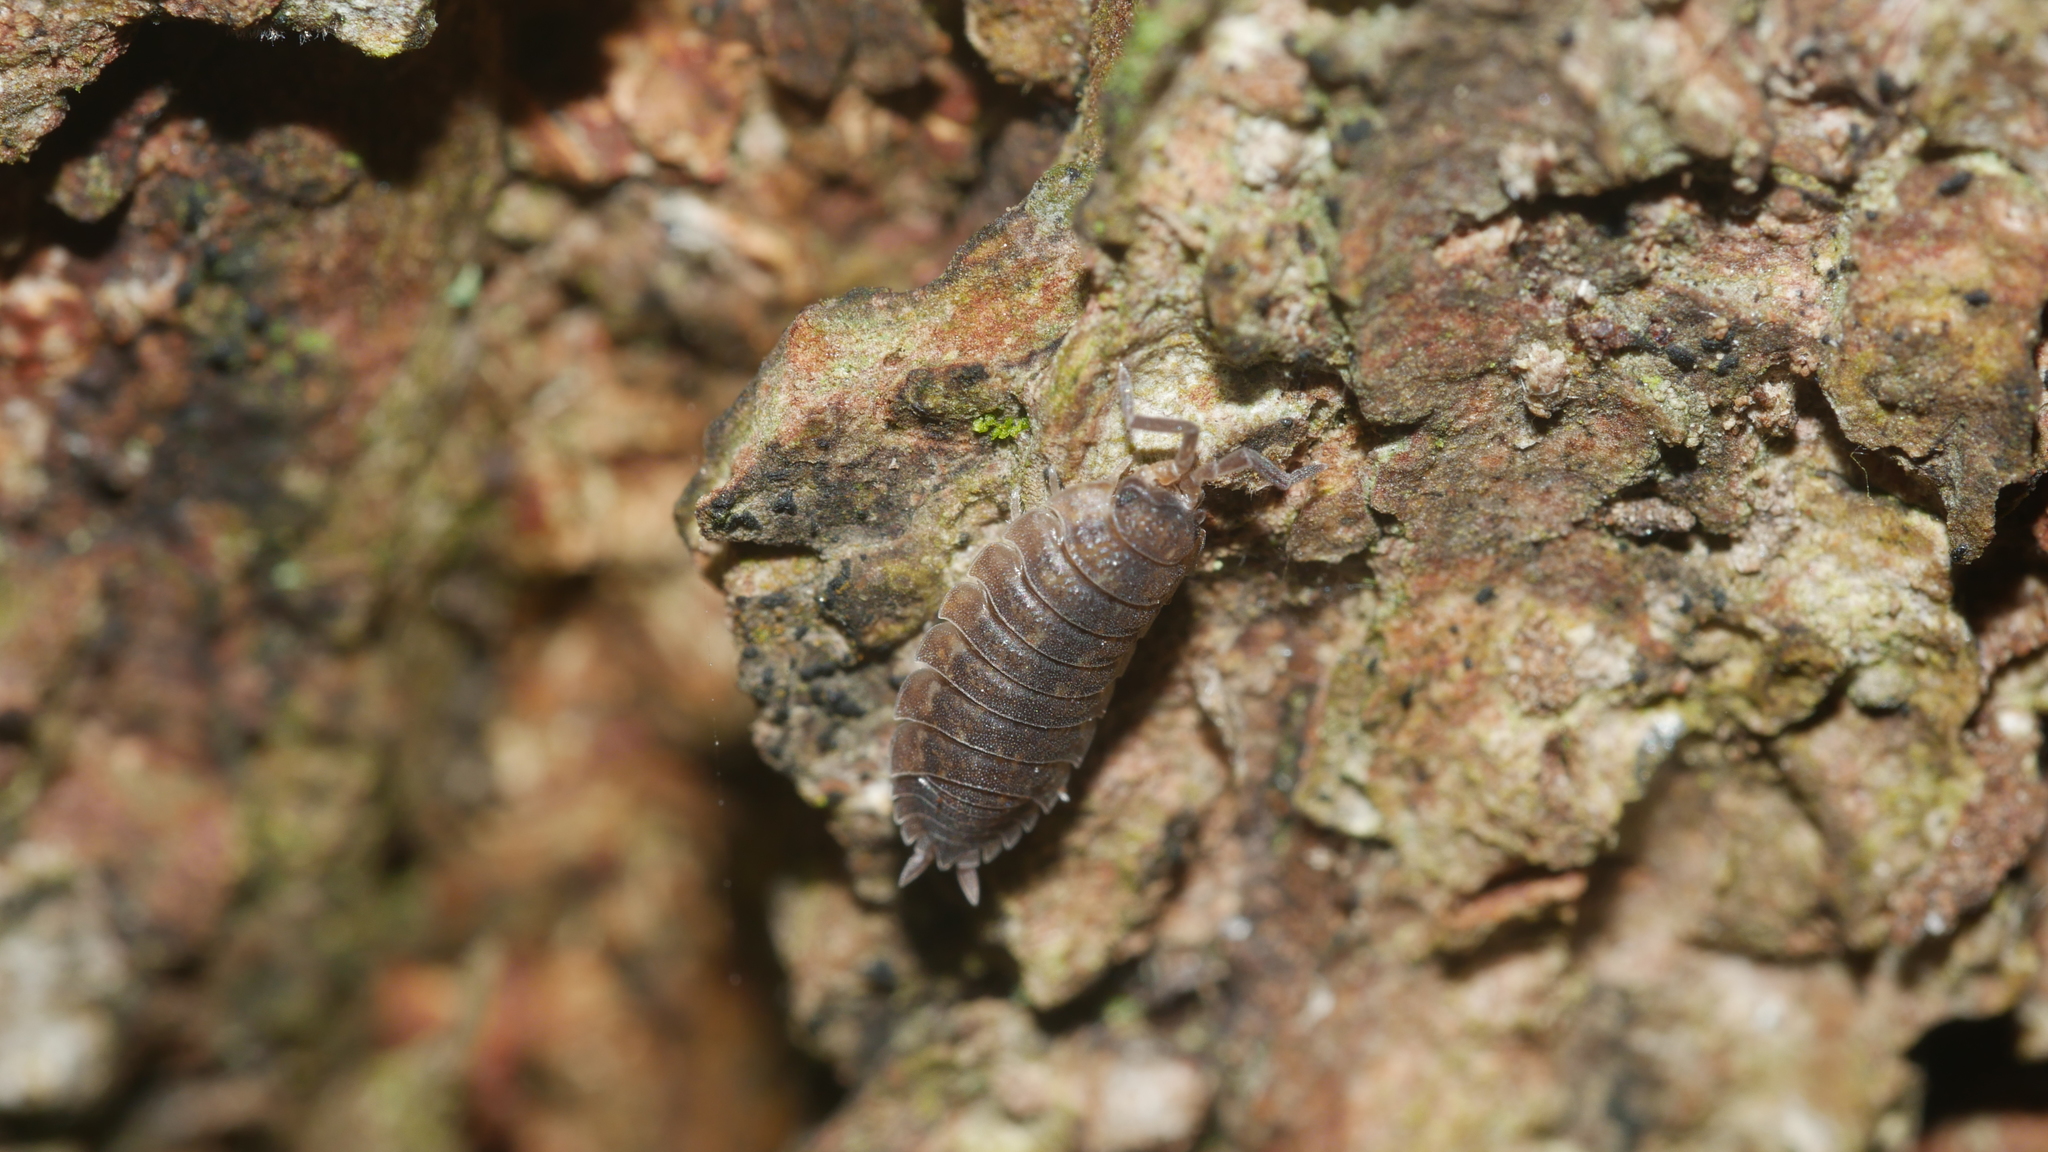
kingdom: Animalia
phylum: Arthropoda
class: Malacostraca
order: Isopoda
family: Porcellionidae
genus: Porcellio
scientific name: Porcellio scaber
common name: Common rough woodlouse
